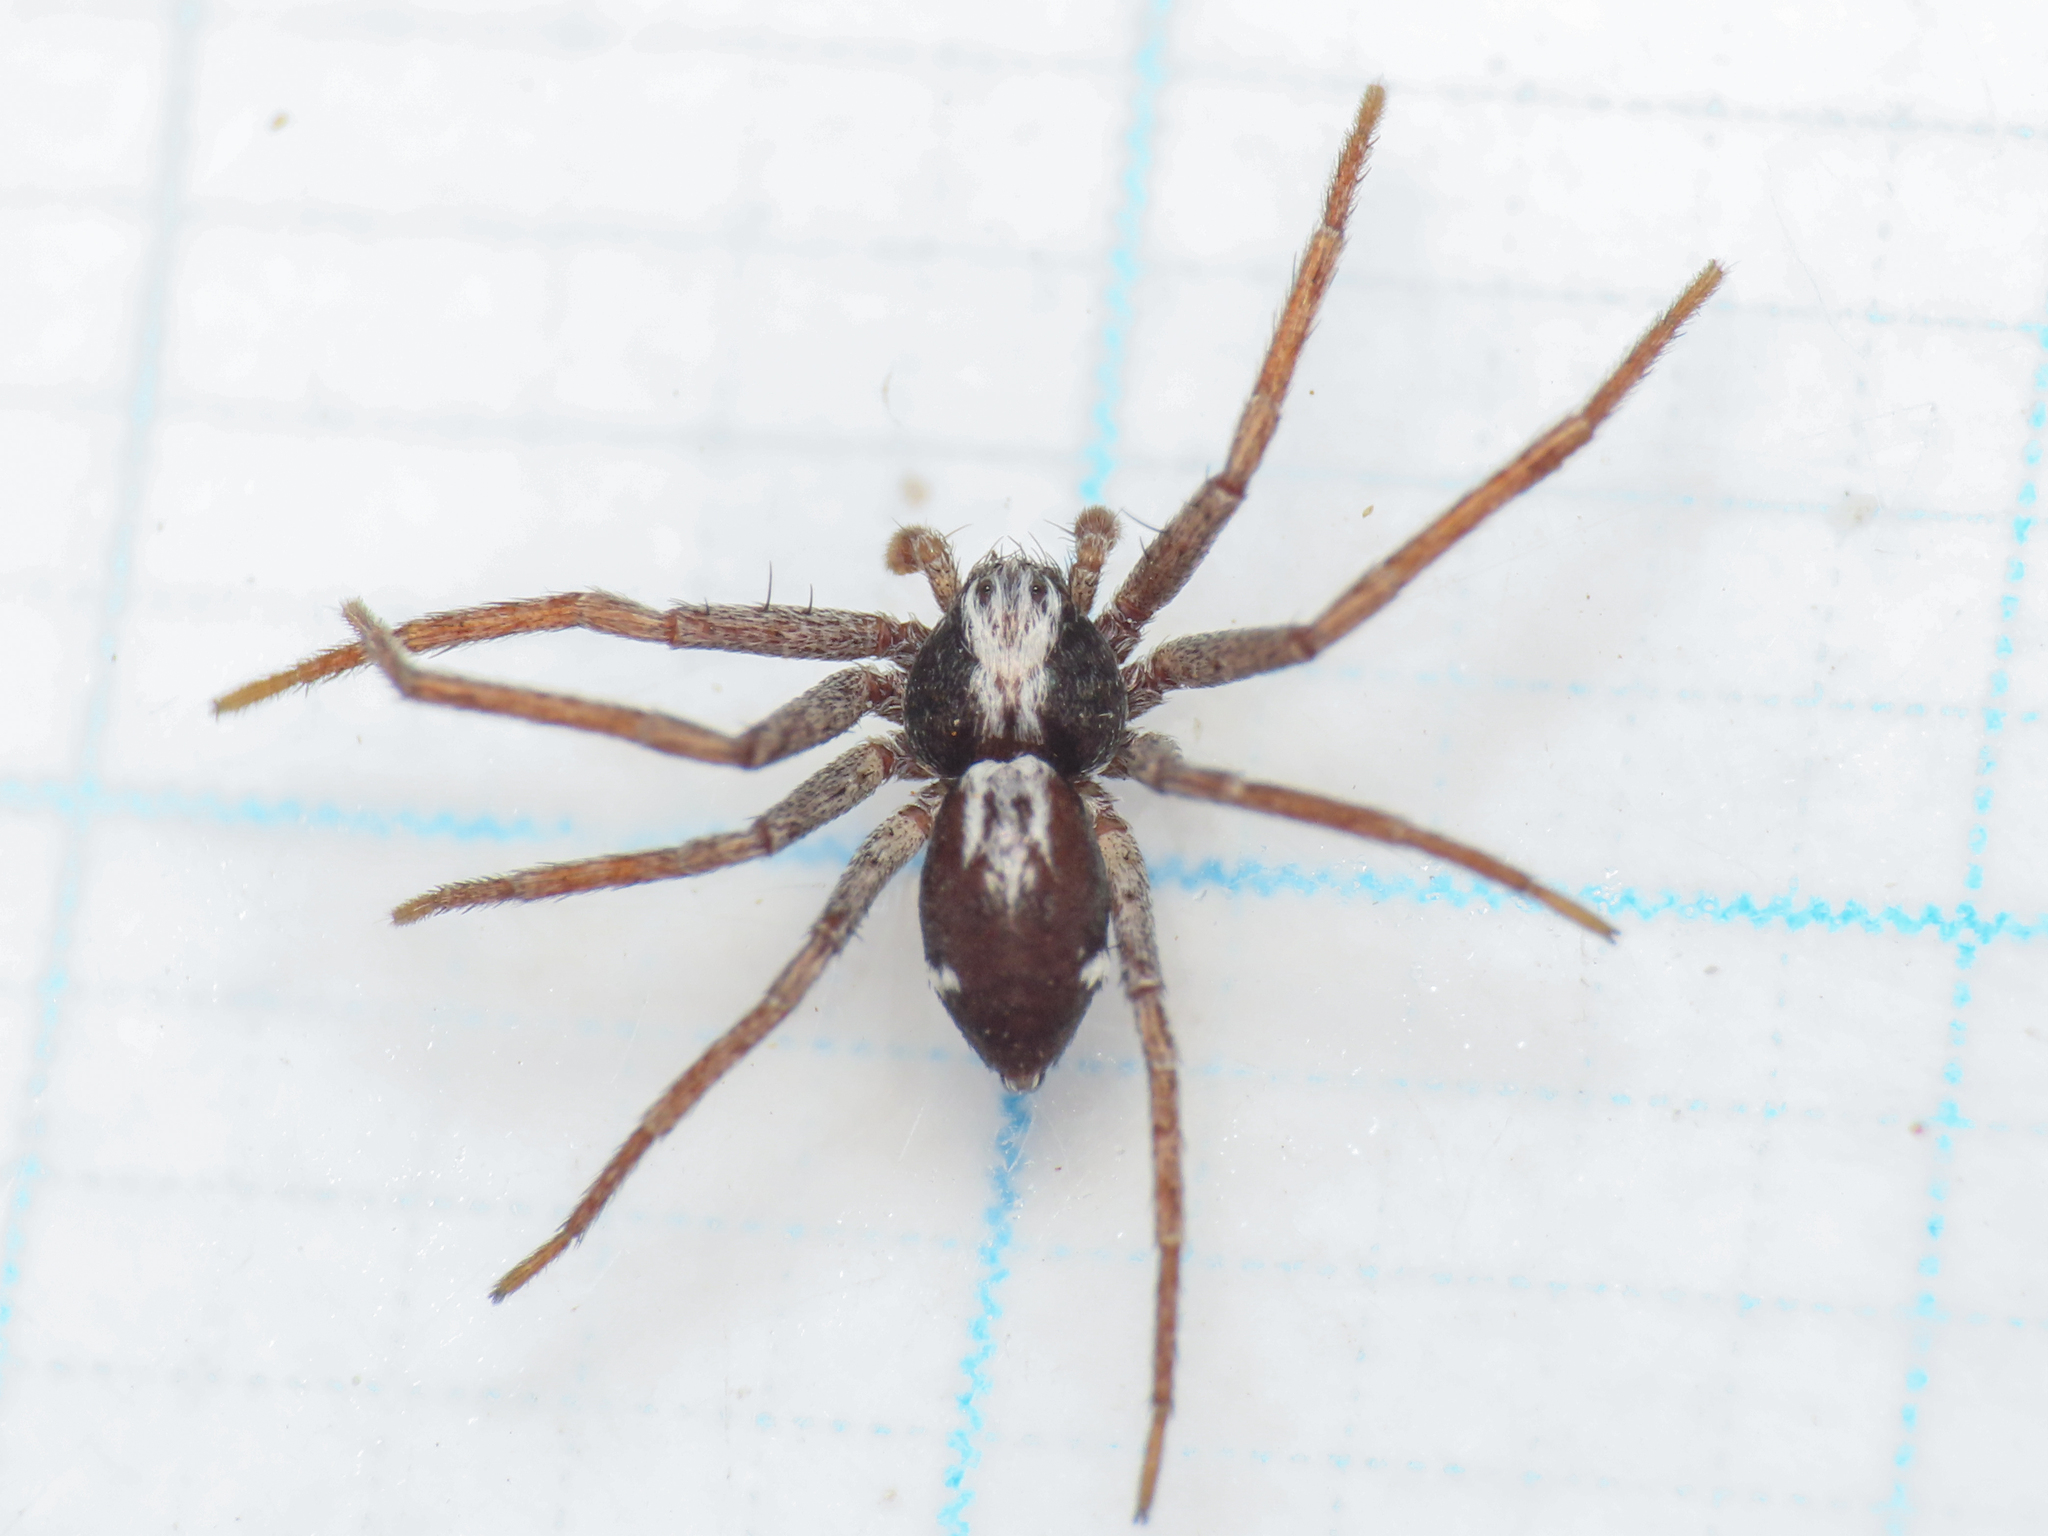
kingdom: Animalia
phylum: Arthropoda
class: Arachnida
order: Araneae
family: Philodromidae
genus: Pulchellodromus
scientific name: Pulchellodromus pulchellus
